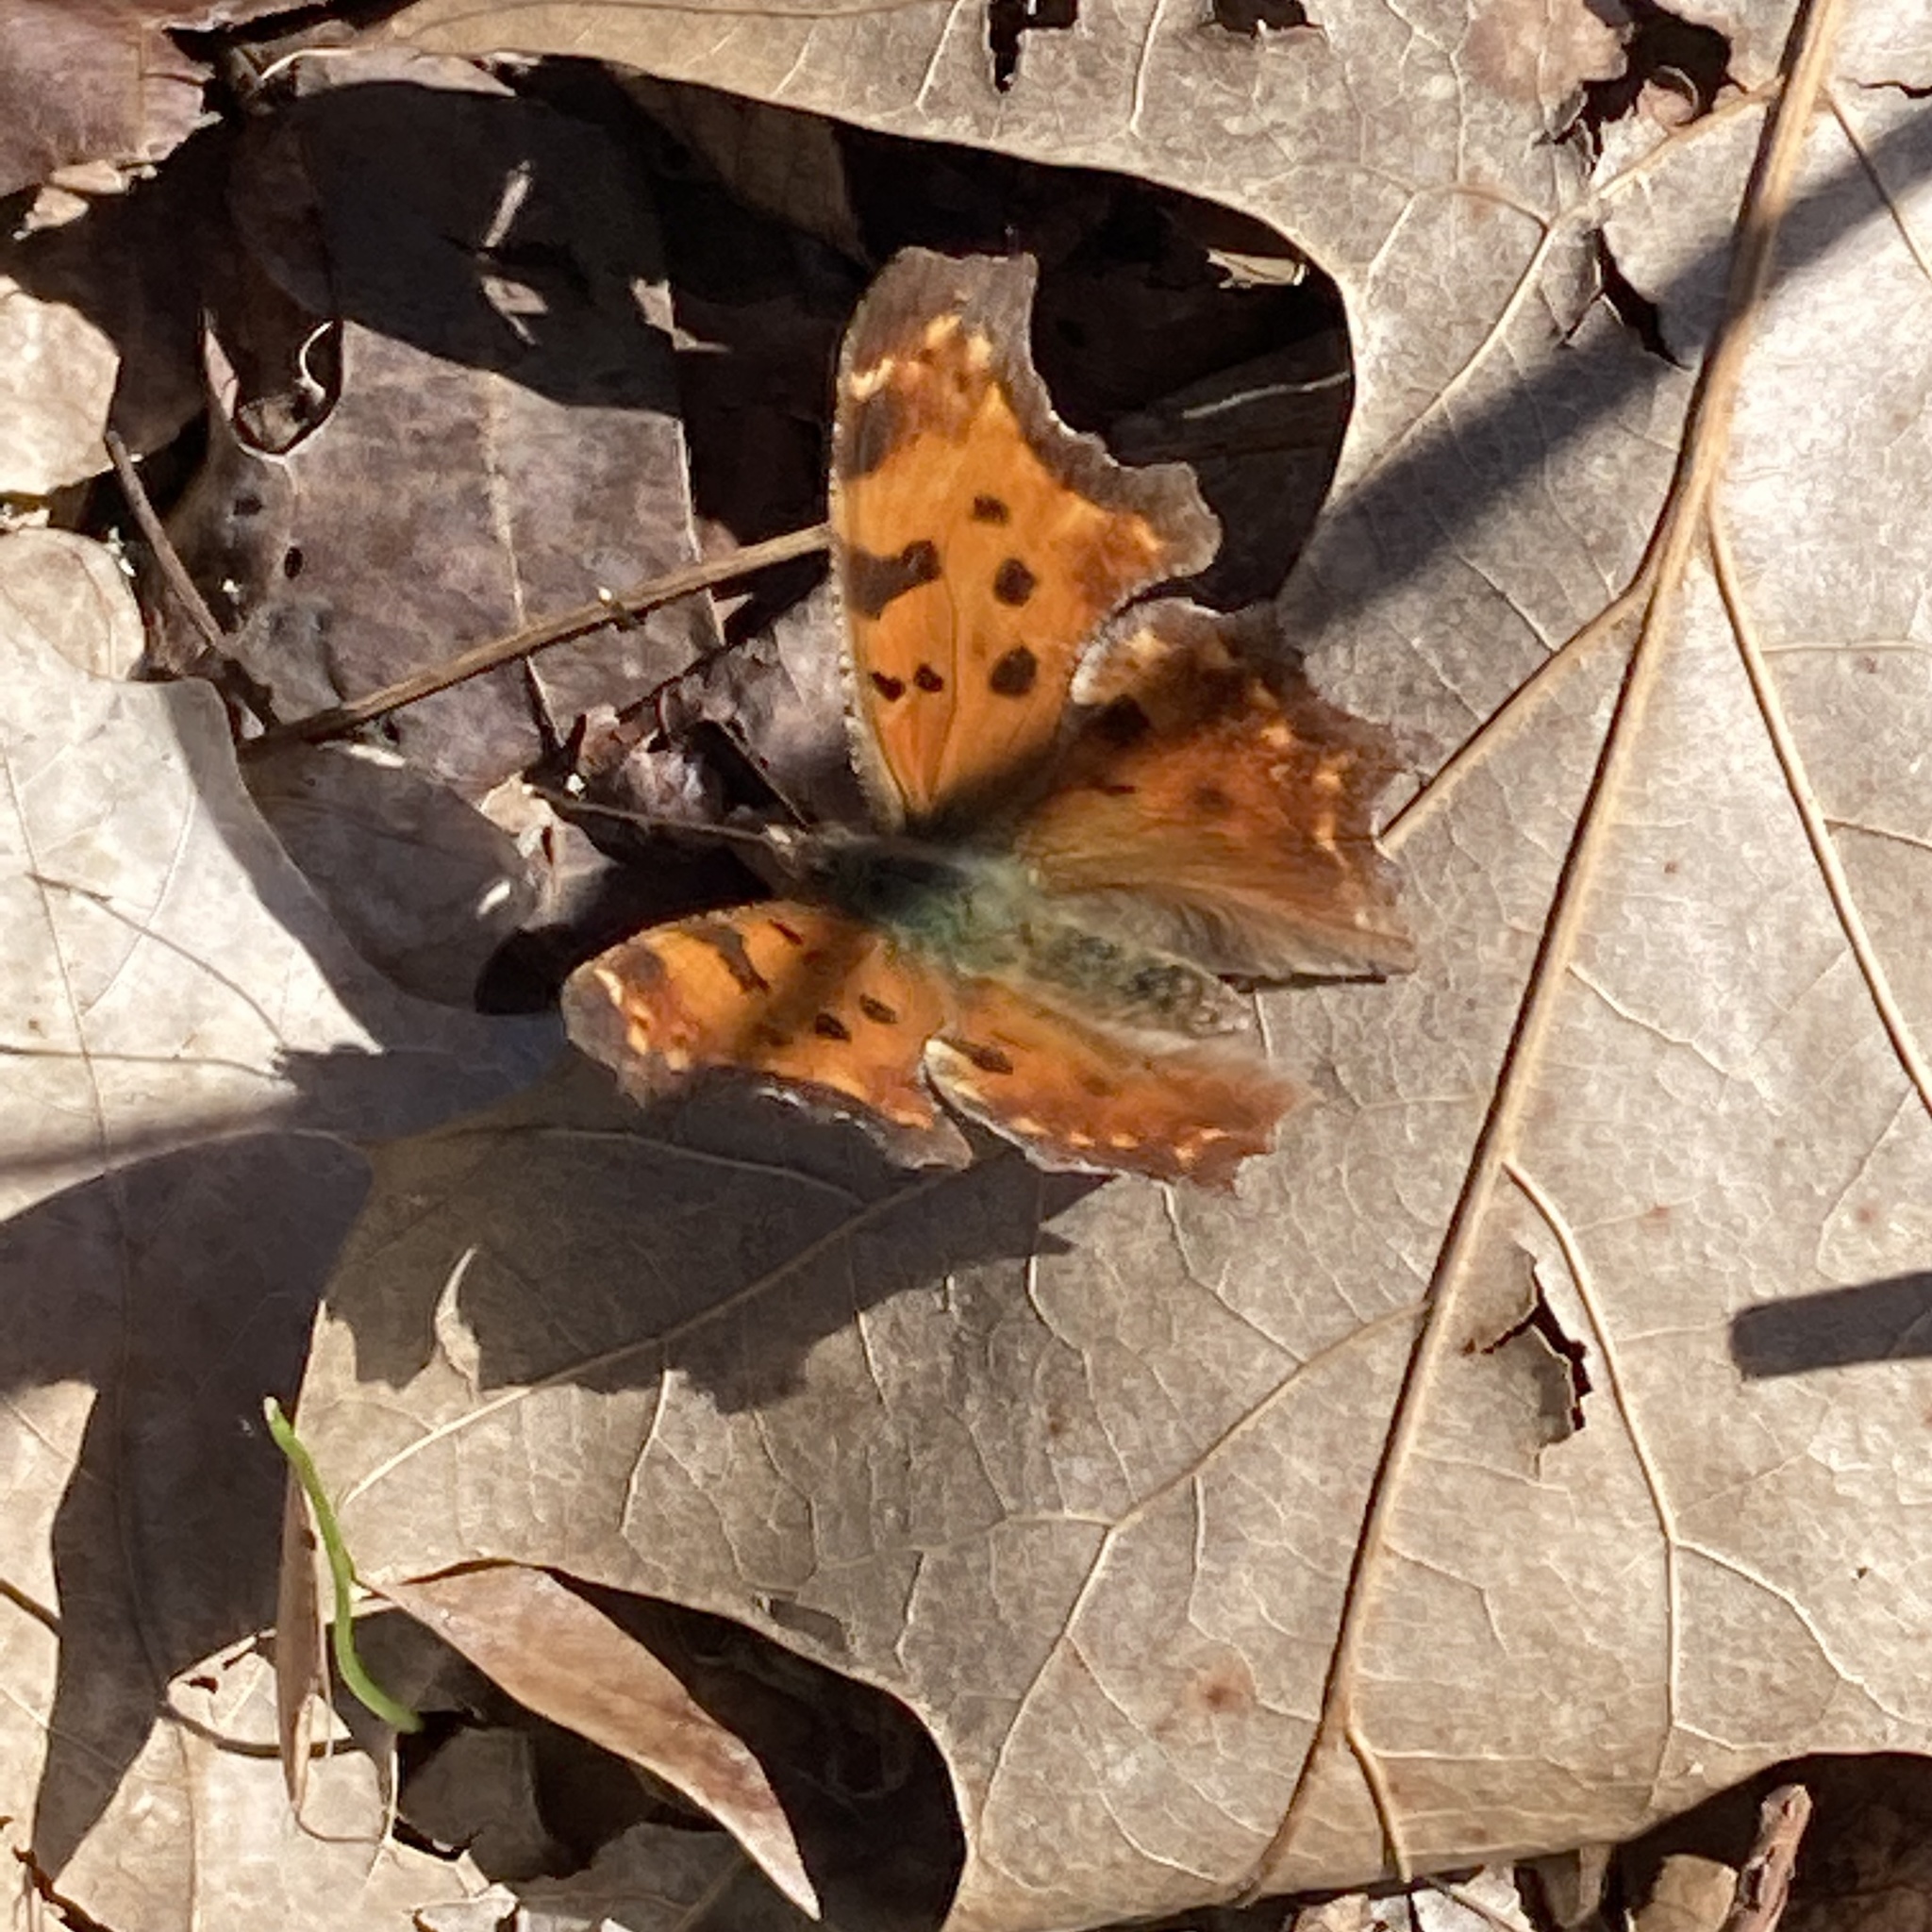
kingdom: Animalia
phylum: Arthropoda
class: Insecta
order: Lepidoptera
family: Nymphalidae
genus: Polygonia
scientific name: Polygonia comma
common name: Eastern comma
